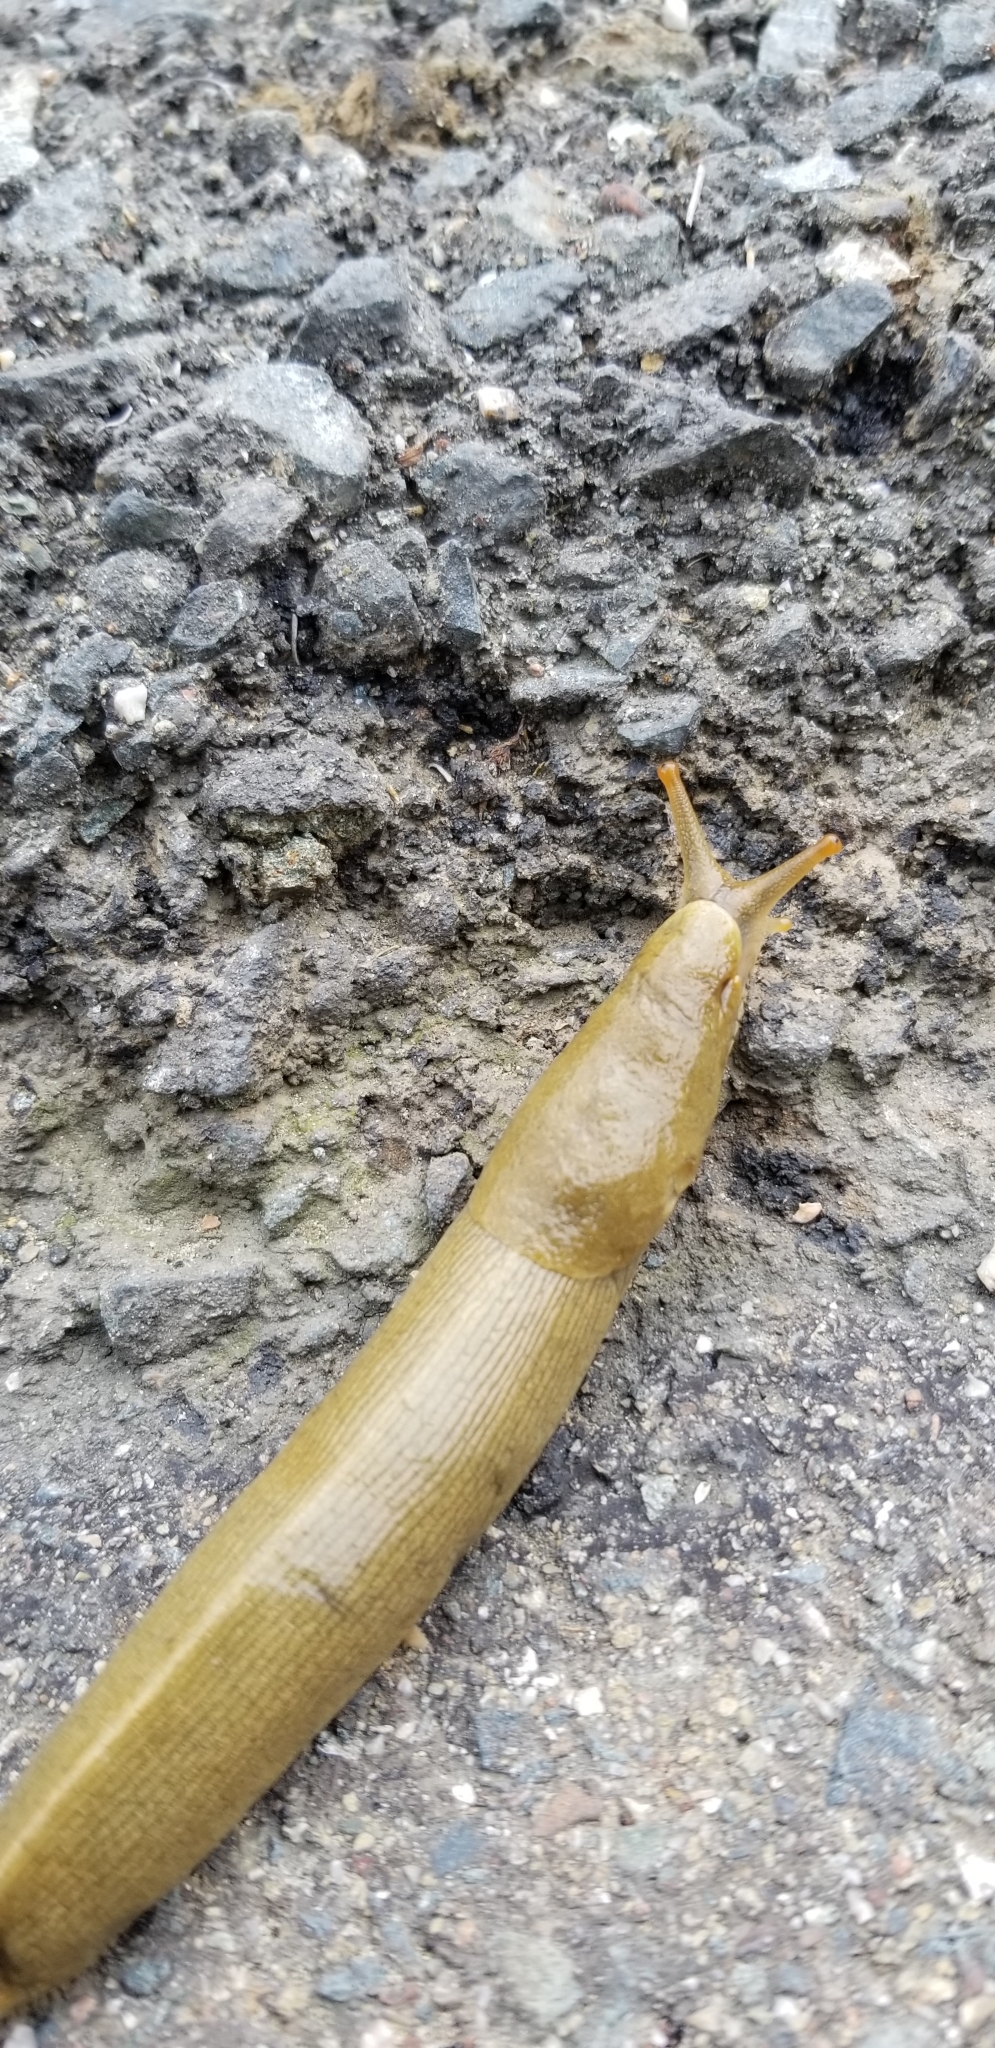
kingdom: Animalia
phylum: Mollusca
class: Gastropoda
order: Stylommatophora
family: Ariolimacidae
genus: Ariolimax
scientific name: Ariolimax buttoni
